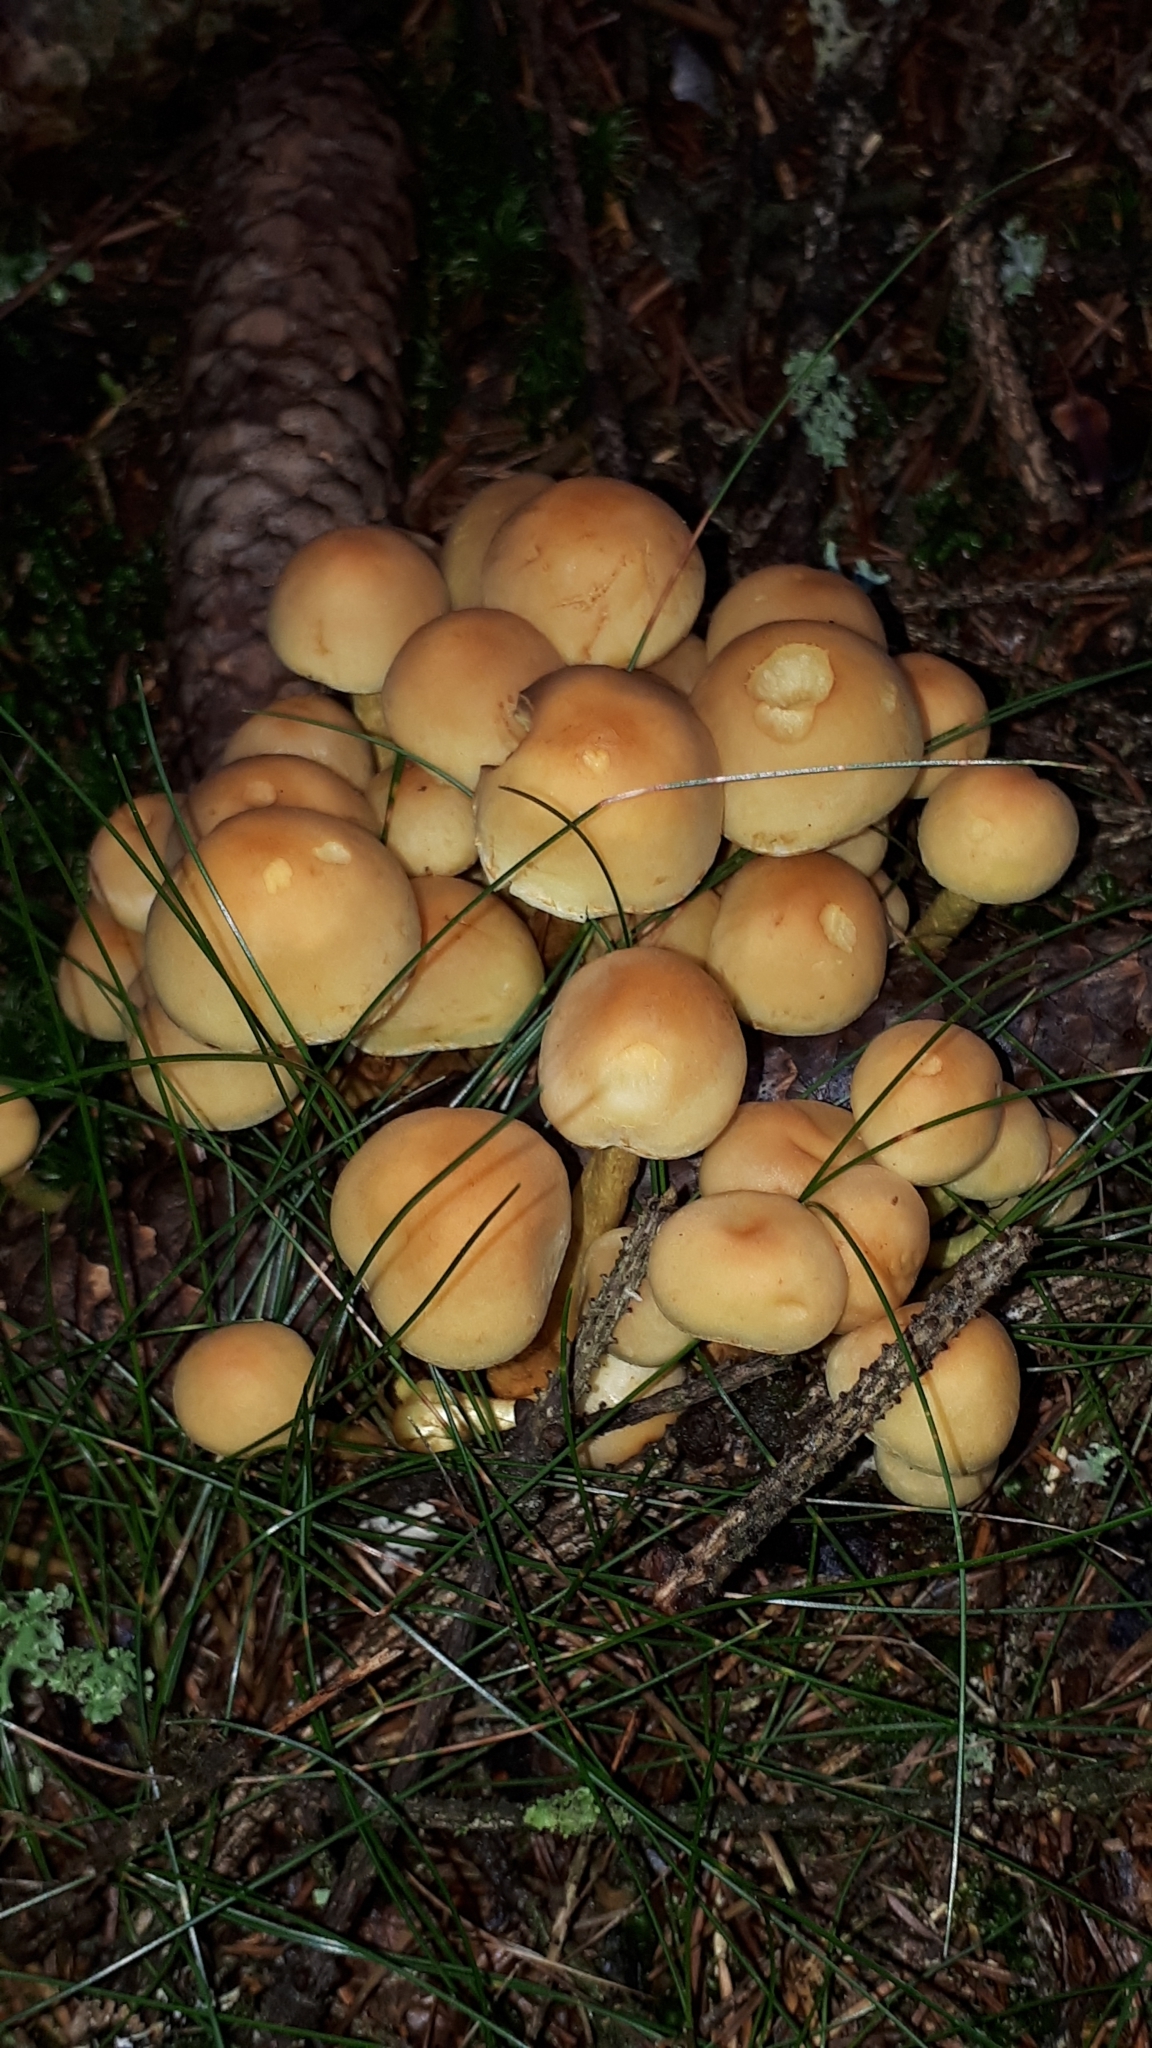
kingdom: Fungi
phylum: Basidiomycota
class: Agaricomycetes
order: Agaricales
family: Strophariaceae
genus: Hypholoma
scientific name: Hypholoma fasciculare
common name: Sulphur tuft
